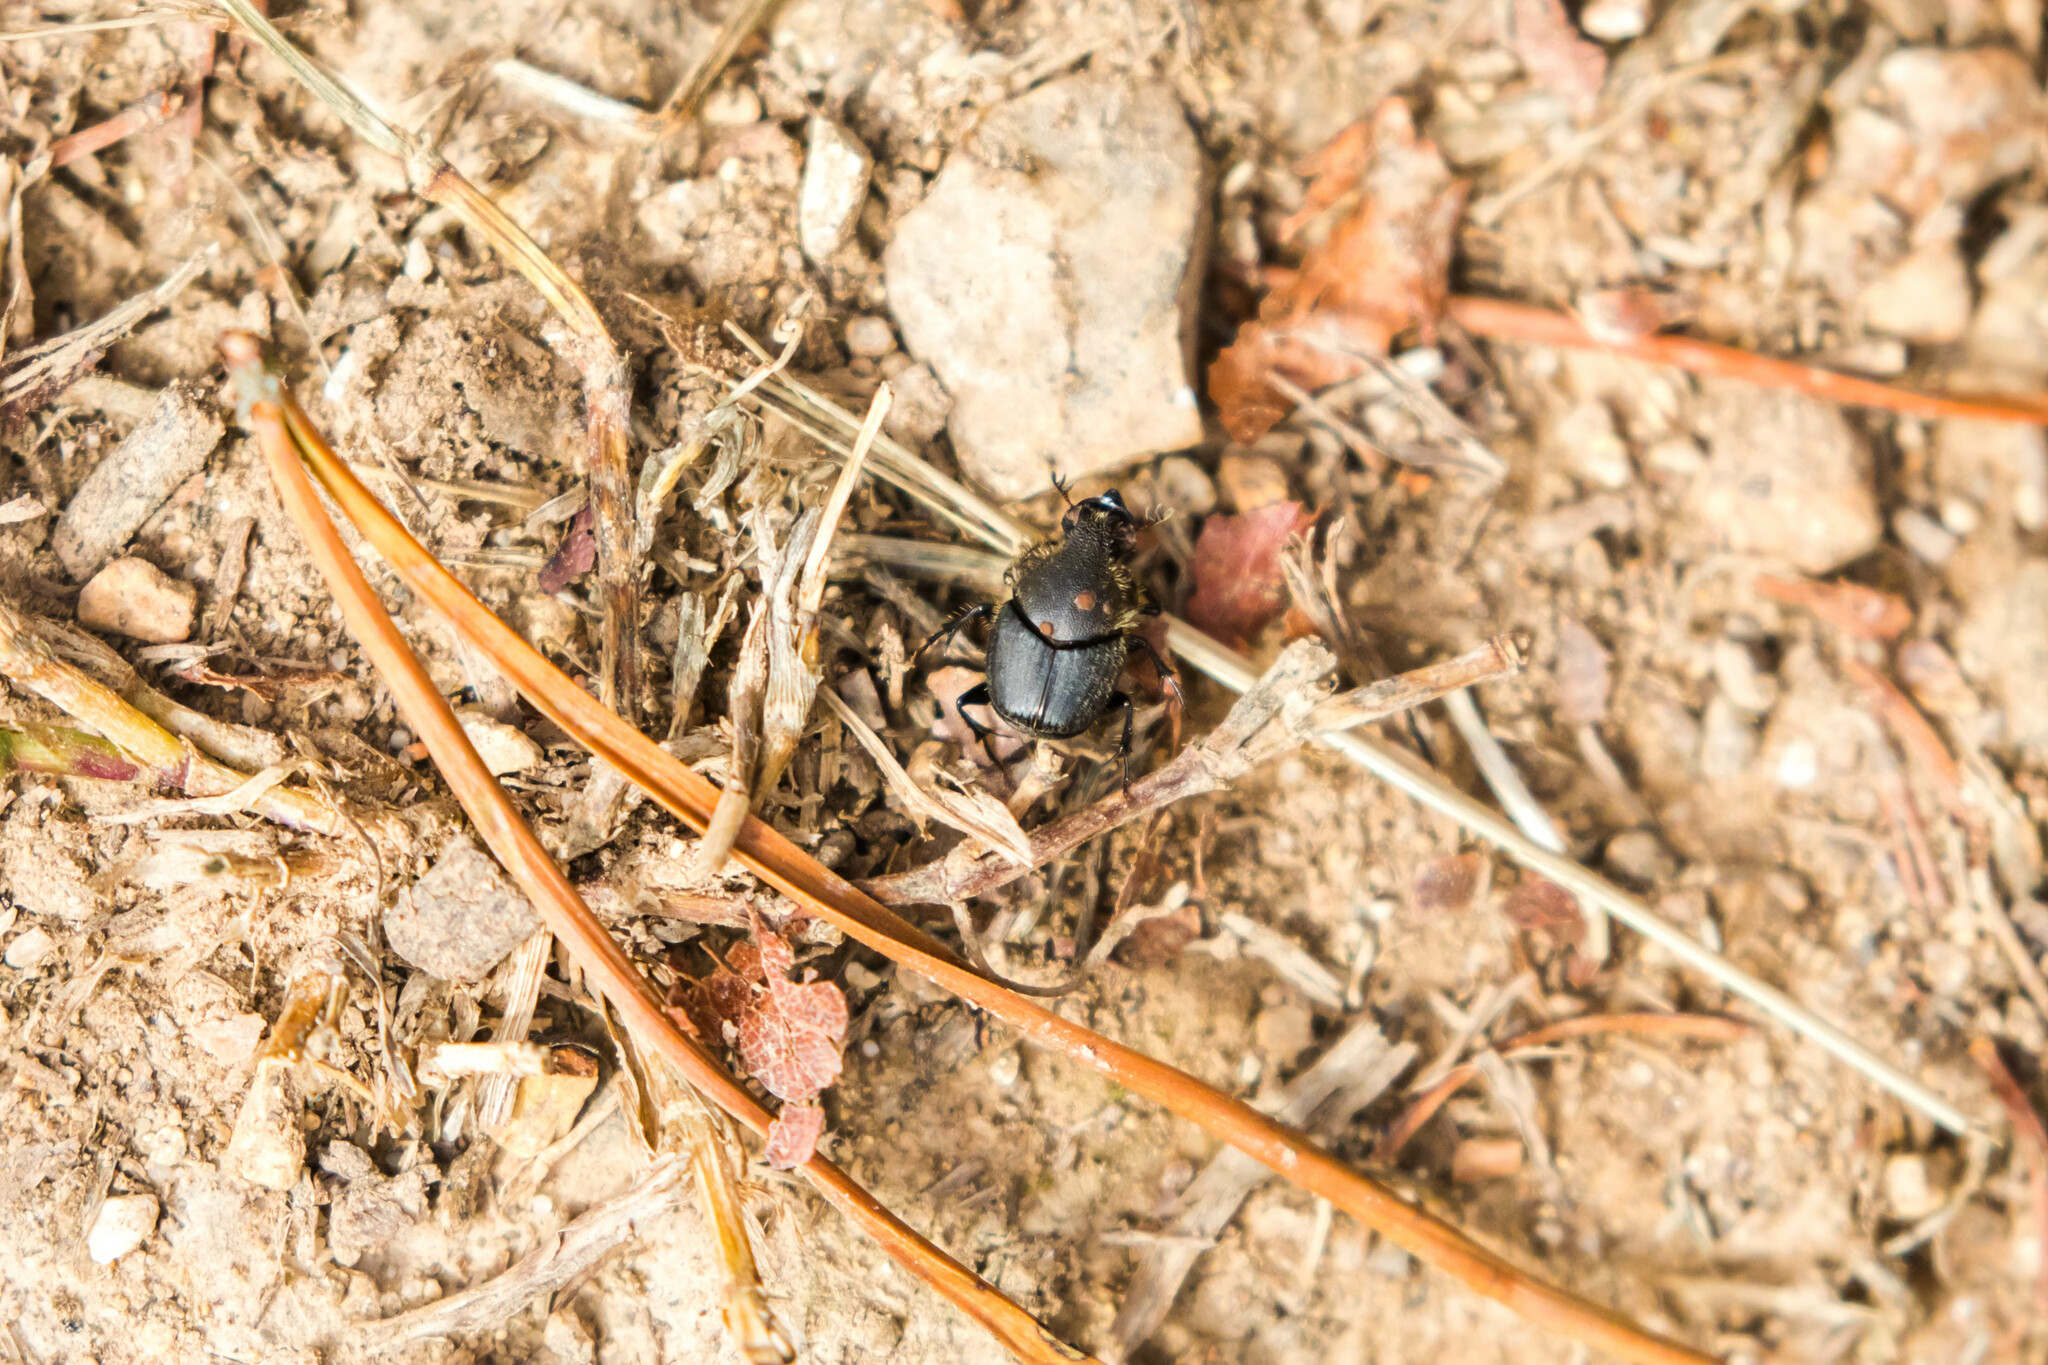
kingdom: Animalia
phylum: Arthropoda
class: Insecta
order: Coleoptera
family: Scarabaeidae
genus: Onthophagus
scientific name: Onthophagus hecate
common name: Scooped scarab
